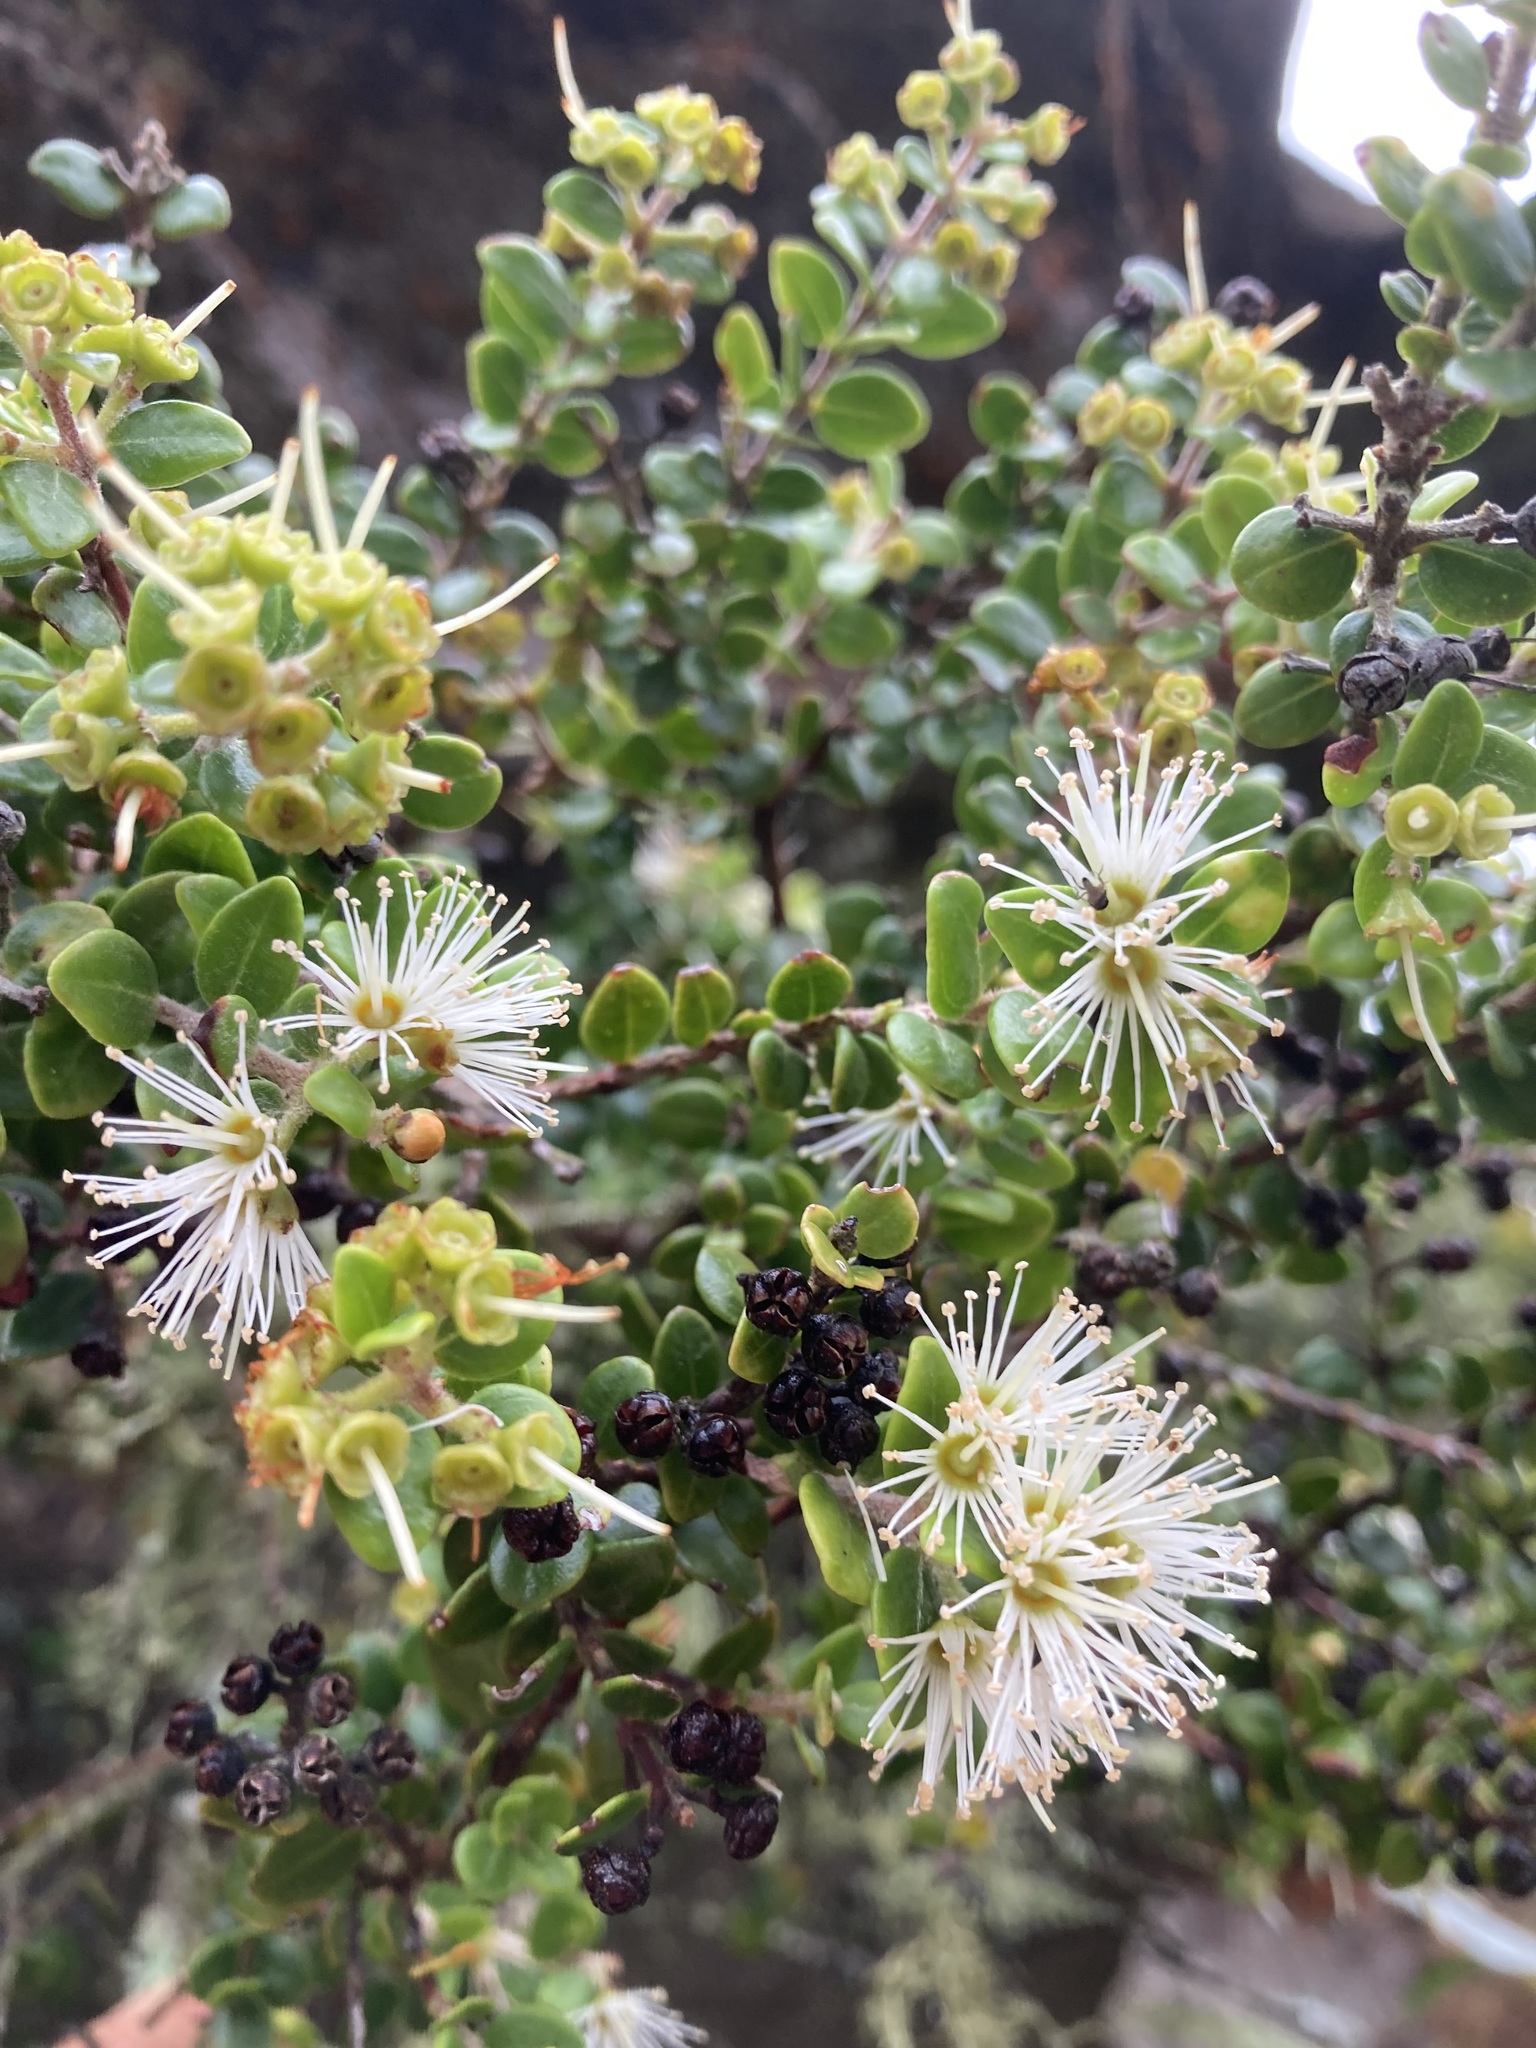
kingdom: Plantae
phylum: Tracheophyta
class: Magnoliopsida
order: Myrtales
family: Myrtaceae
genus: Metrosideros
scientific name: Metrosideros perforata
